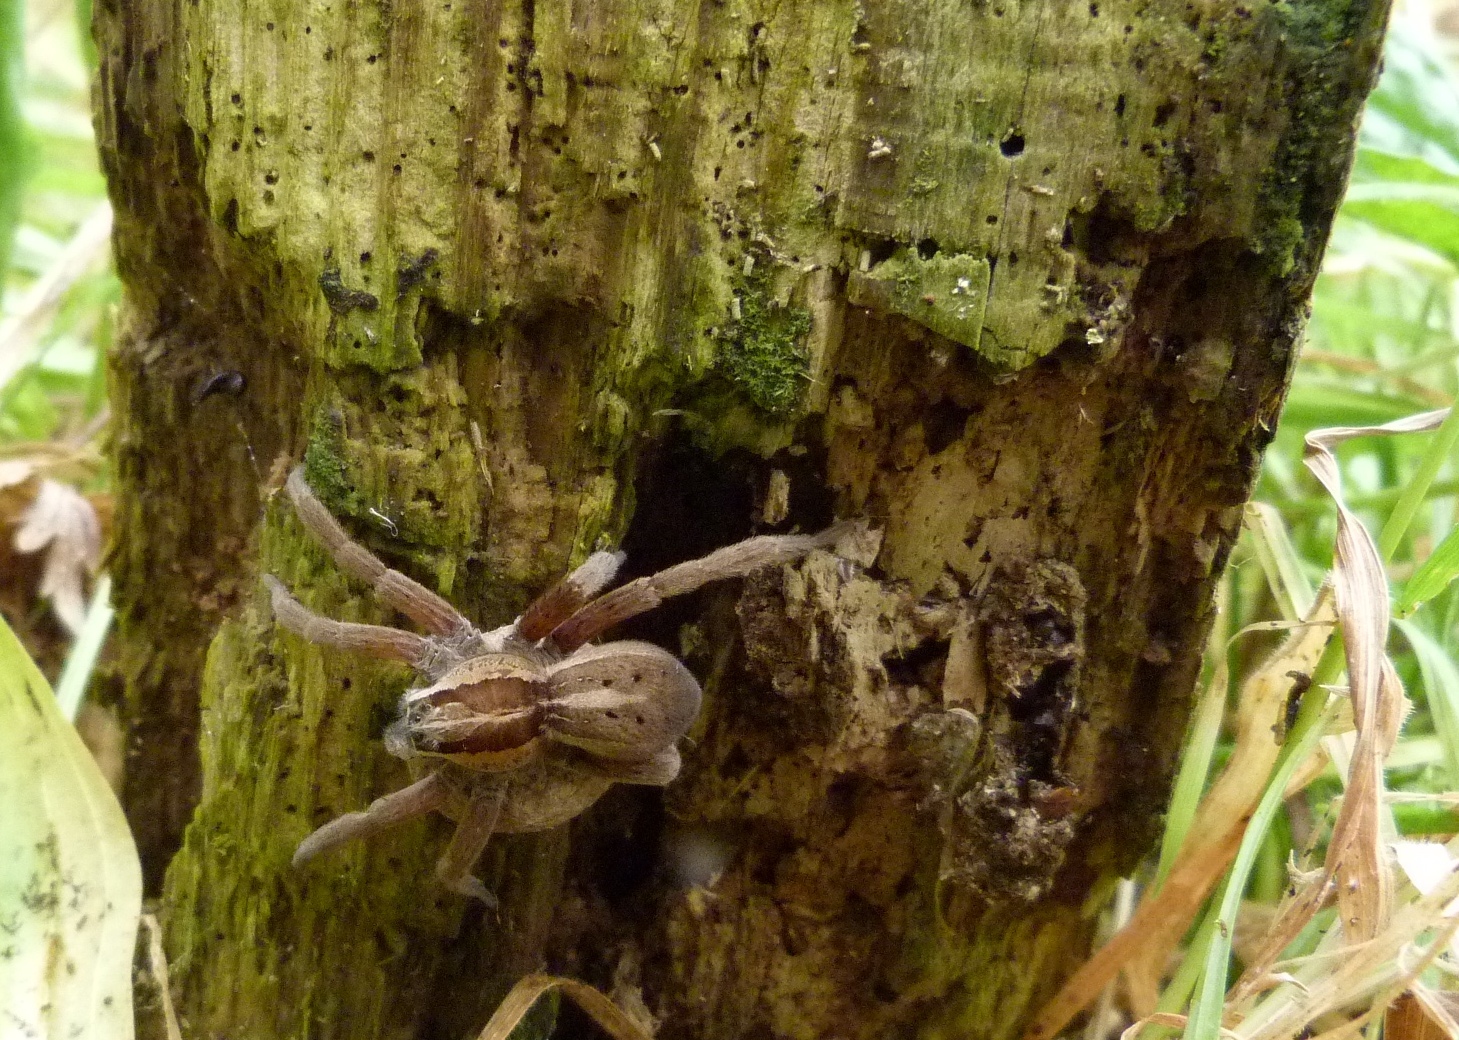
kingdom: Animalia
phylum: Arthropoda
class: Arachnida
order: Araneae
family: Pisauridae
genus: Dolomedes
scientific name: Dolomedes minor
